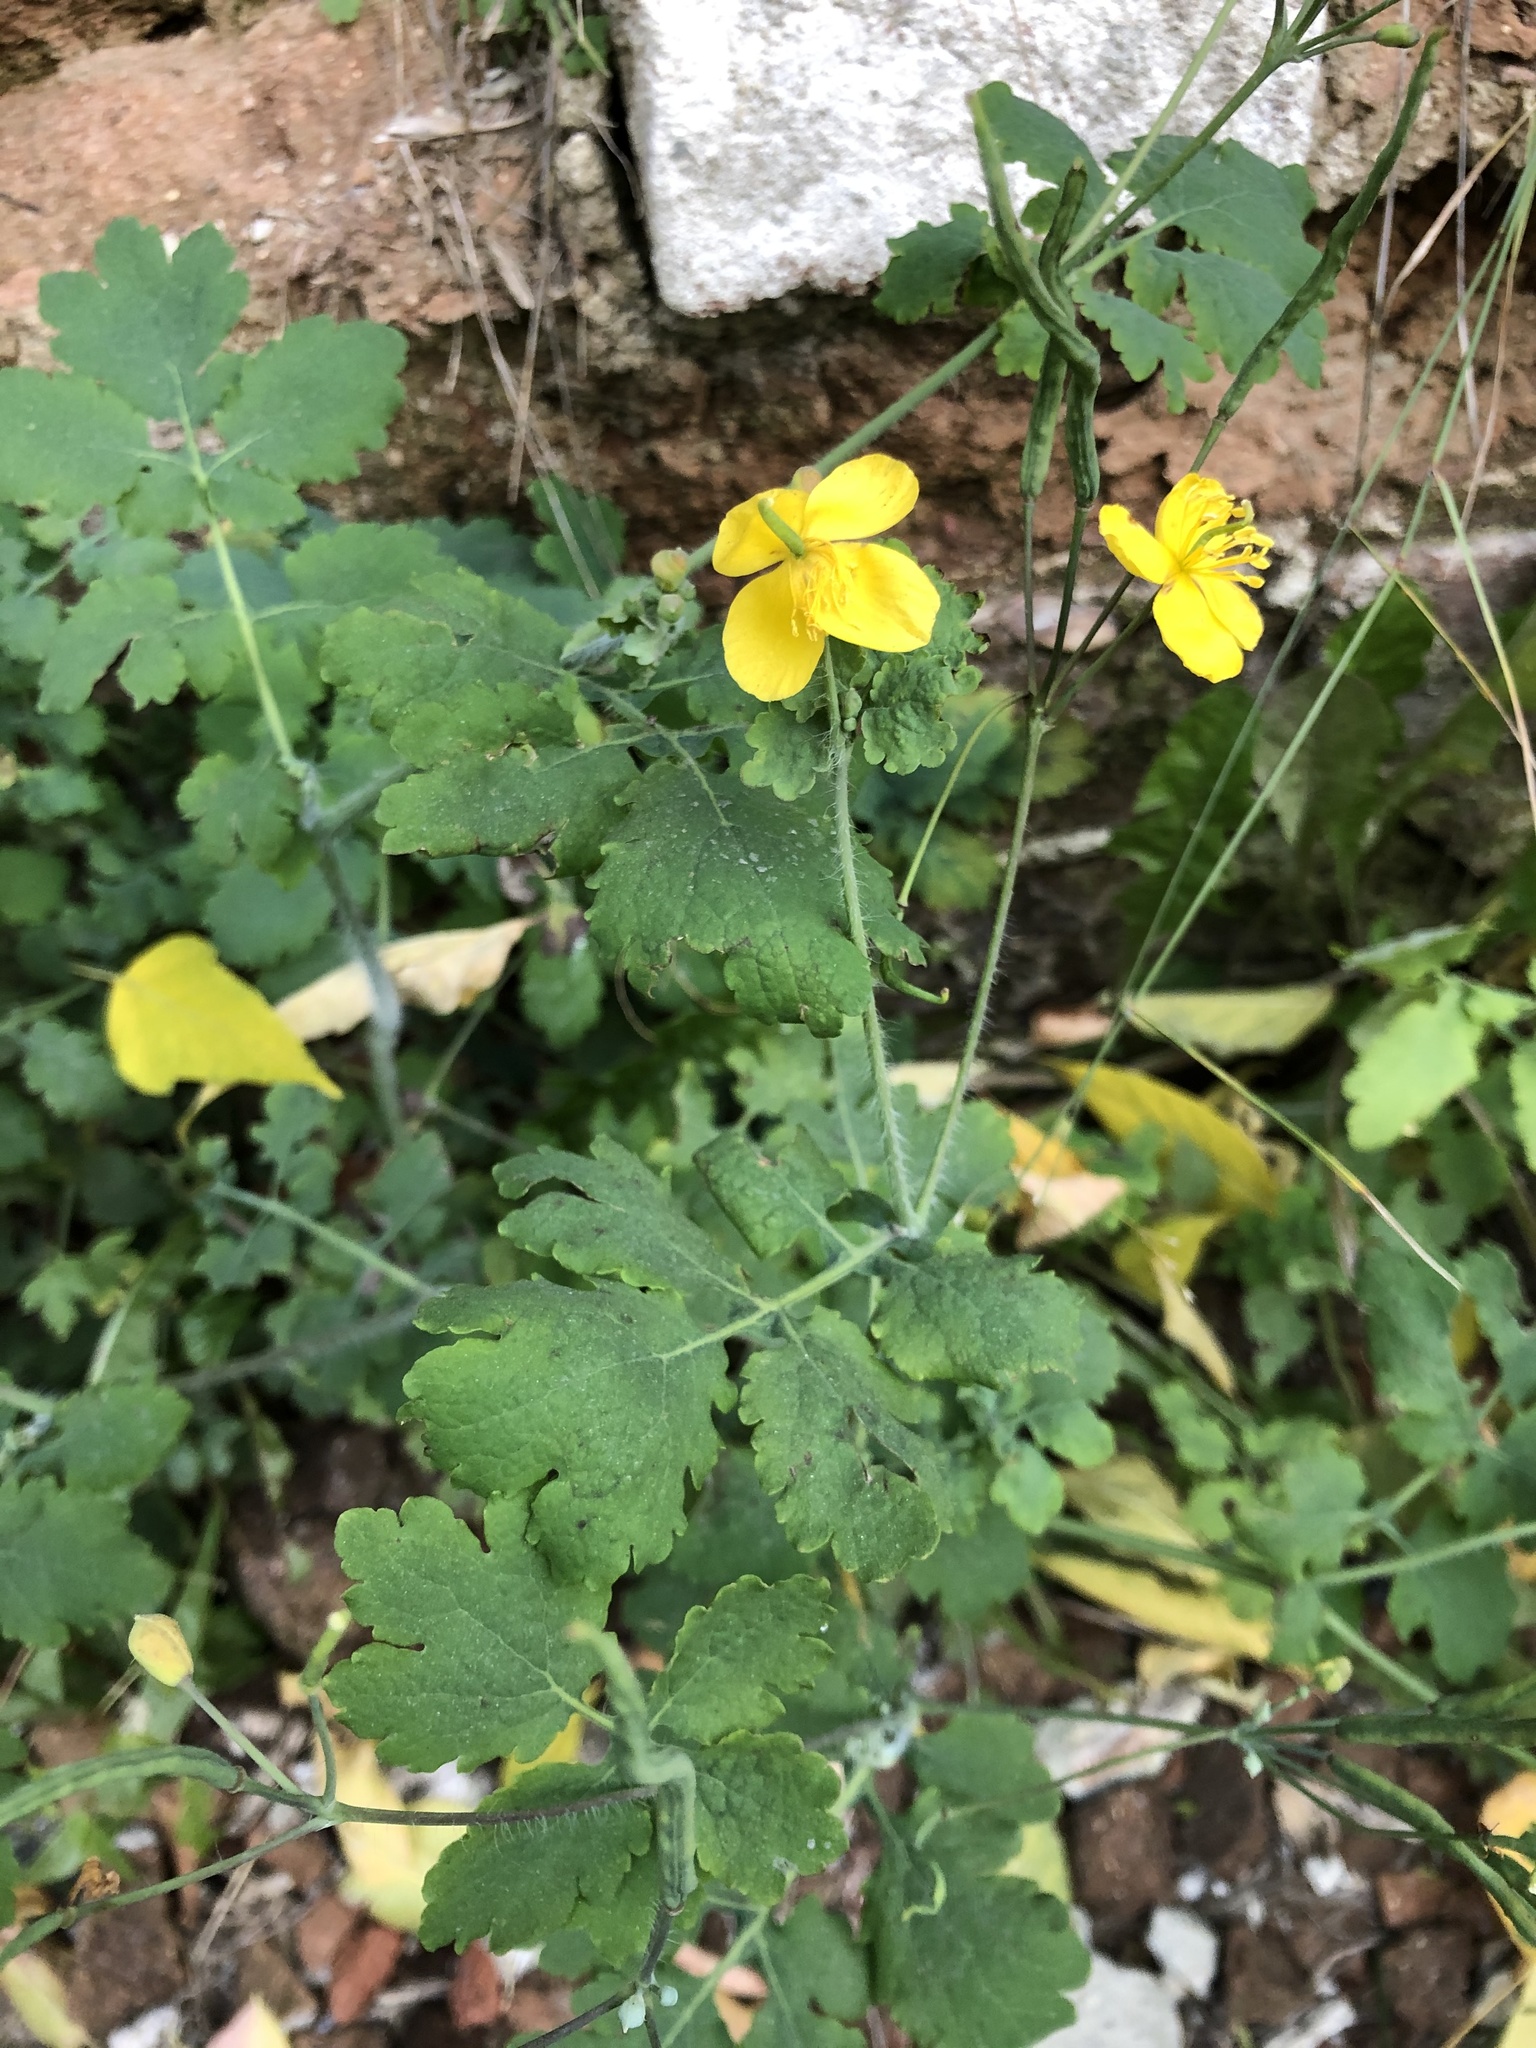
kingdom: Plantae
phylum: Tracheophyta
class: Magnoliopsida
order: Ranunculales
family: Papaveraceae
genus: Chelidonium
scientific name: Chelidonium majus
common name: Greater celandine
